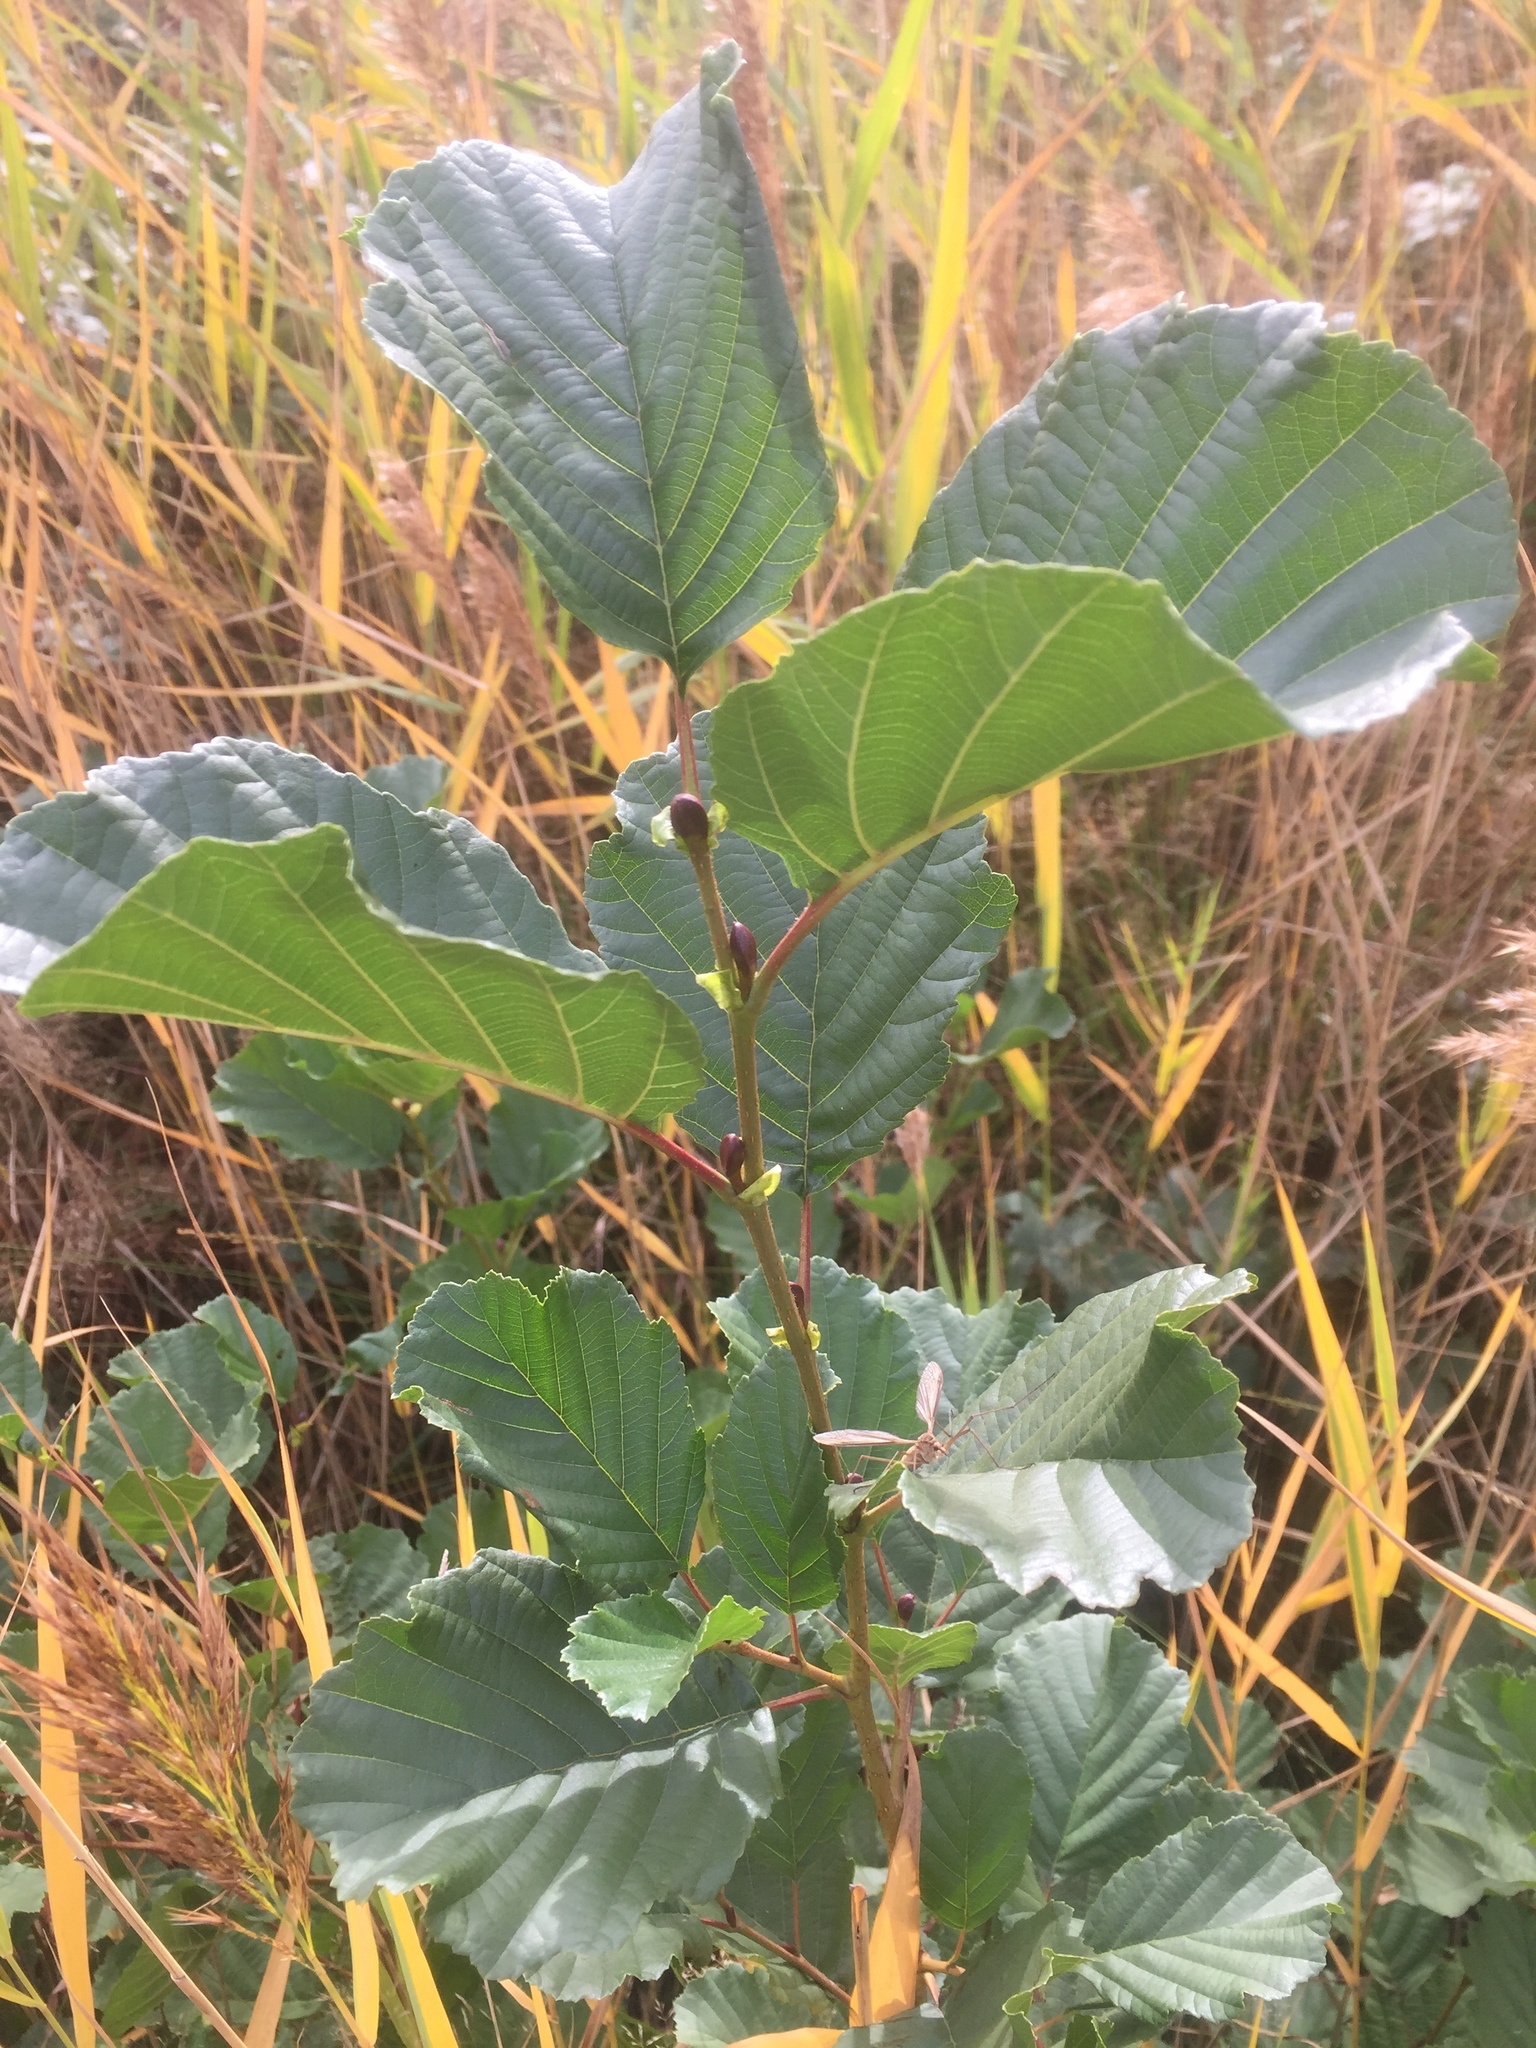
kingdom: Plantae
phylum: Tracheophyta
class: Magnoliopsida
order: Fagales
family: Betulaceae
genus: Alnus
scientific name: Alnus glutinosa
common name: Black alder
